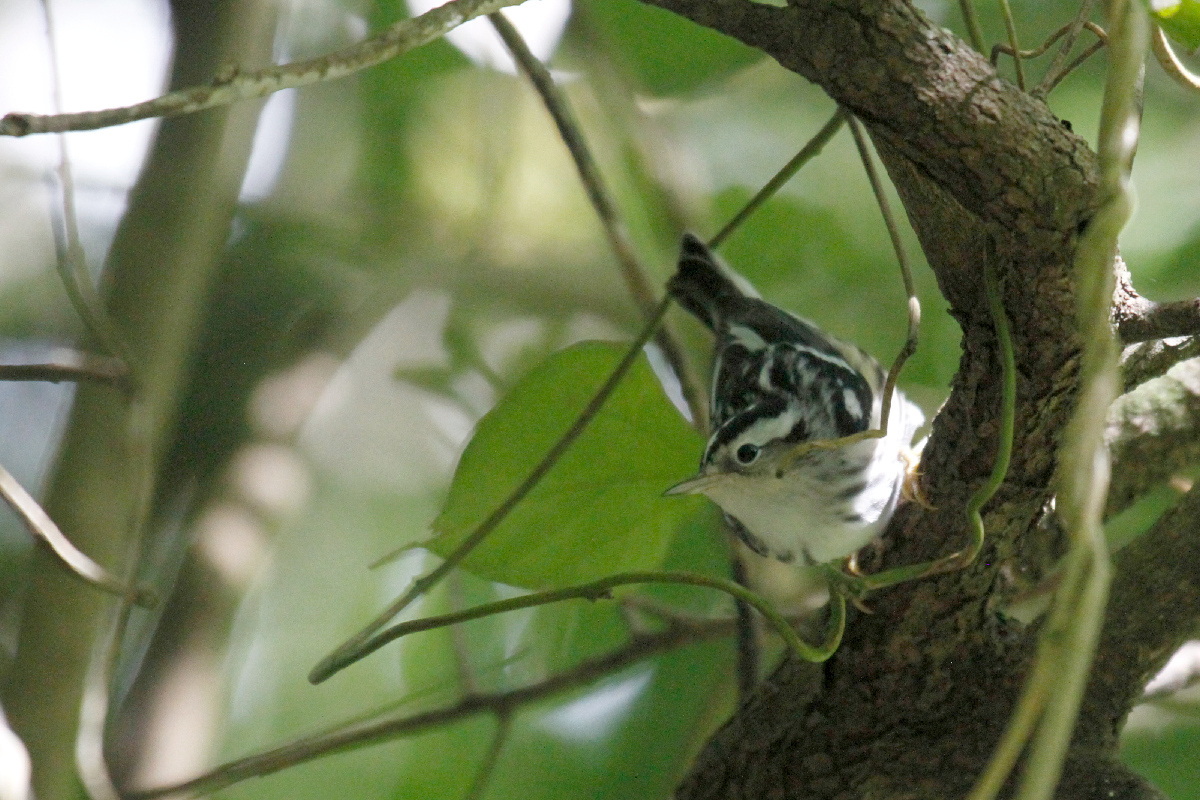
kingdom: Animalia
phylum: Chordata
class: Aves
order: Passeriformes
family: Parulidae
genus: Mniotilta
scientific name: Mniotilta varia
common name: Black-and-white warbler
